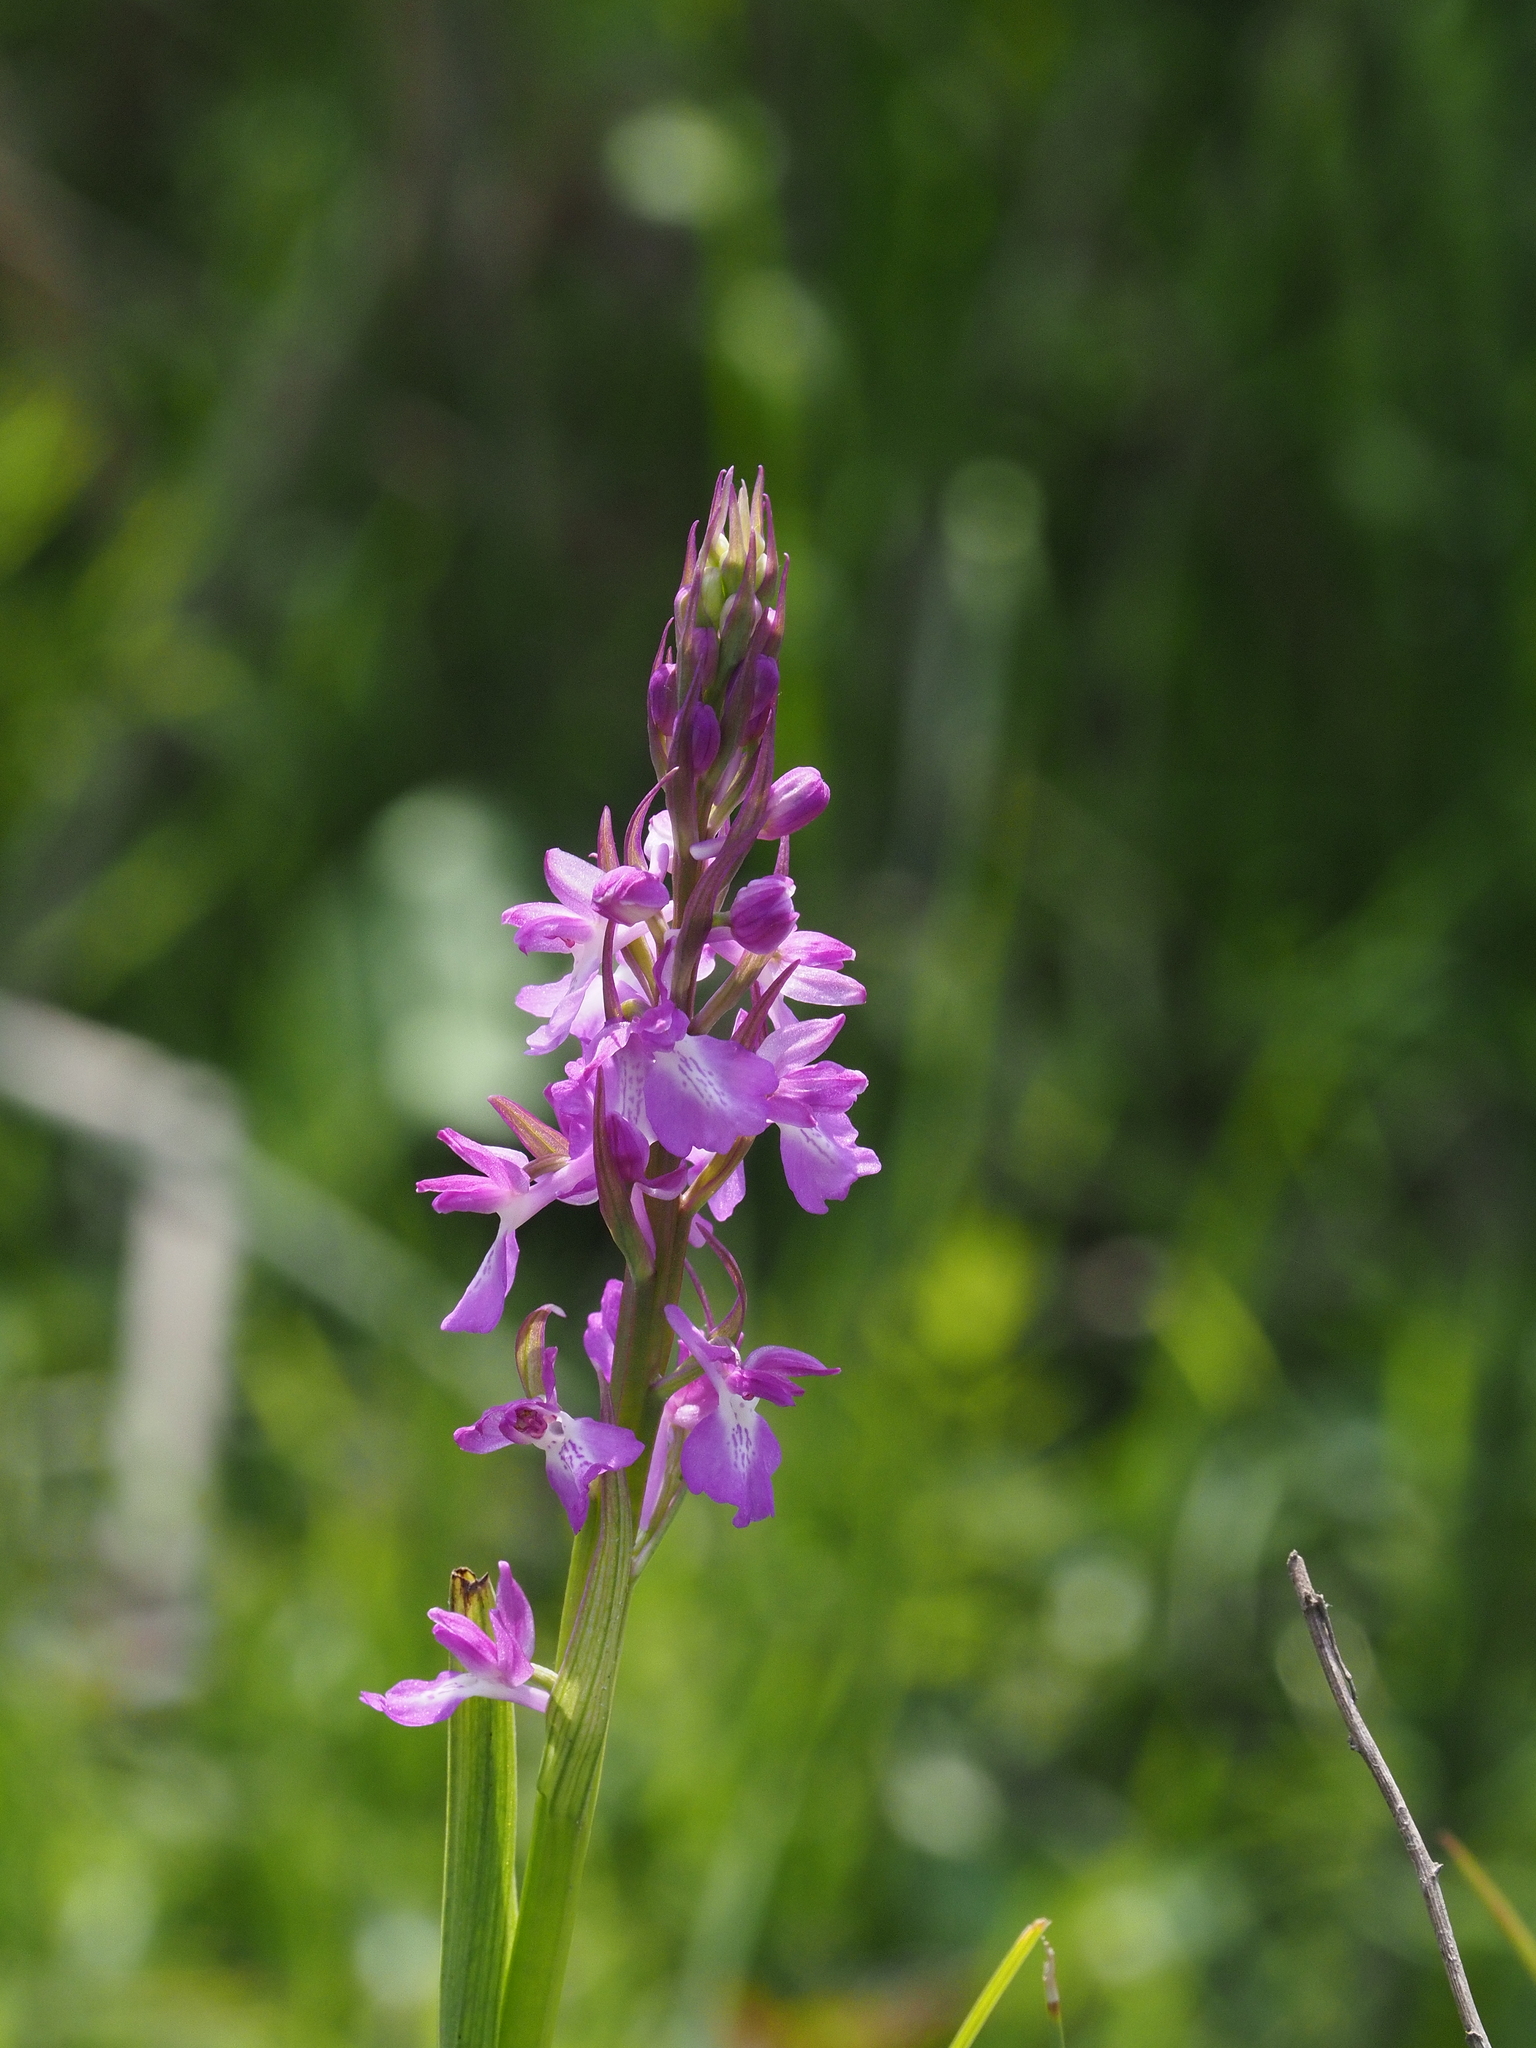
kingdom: Plantae
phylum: Tracheophyta
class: Liliopsida
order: Asparagales
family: Orchidaceae
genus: Anacamptis
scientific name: Anacamptis palustris
